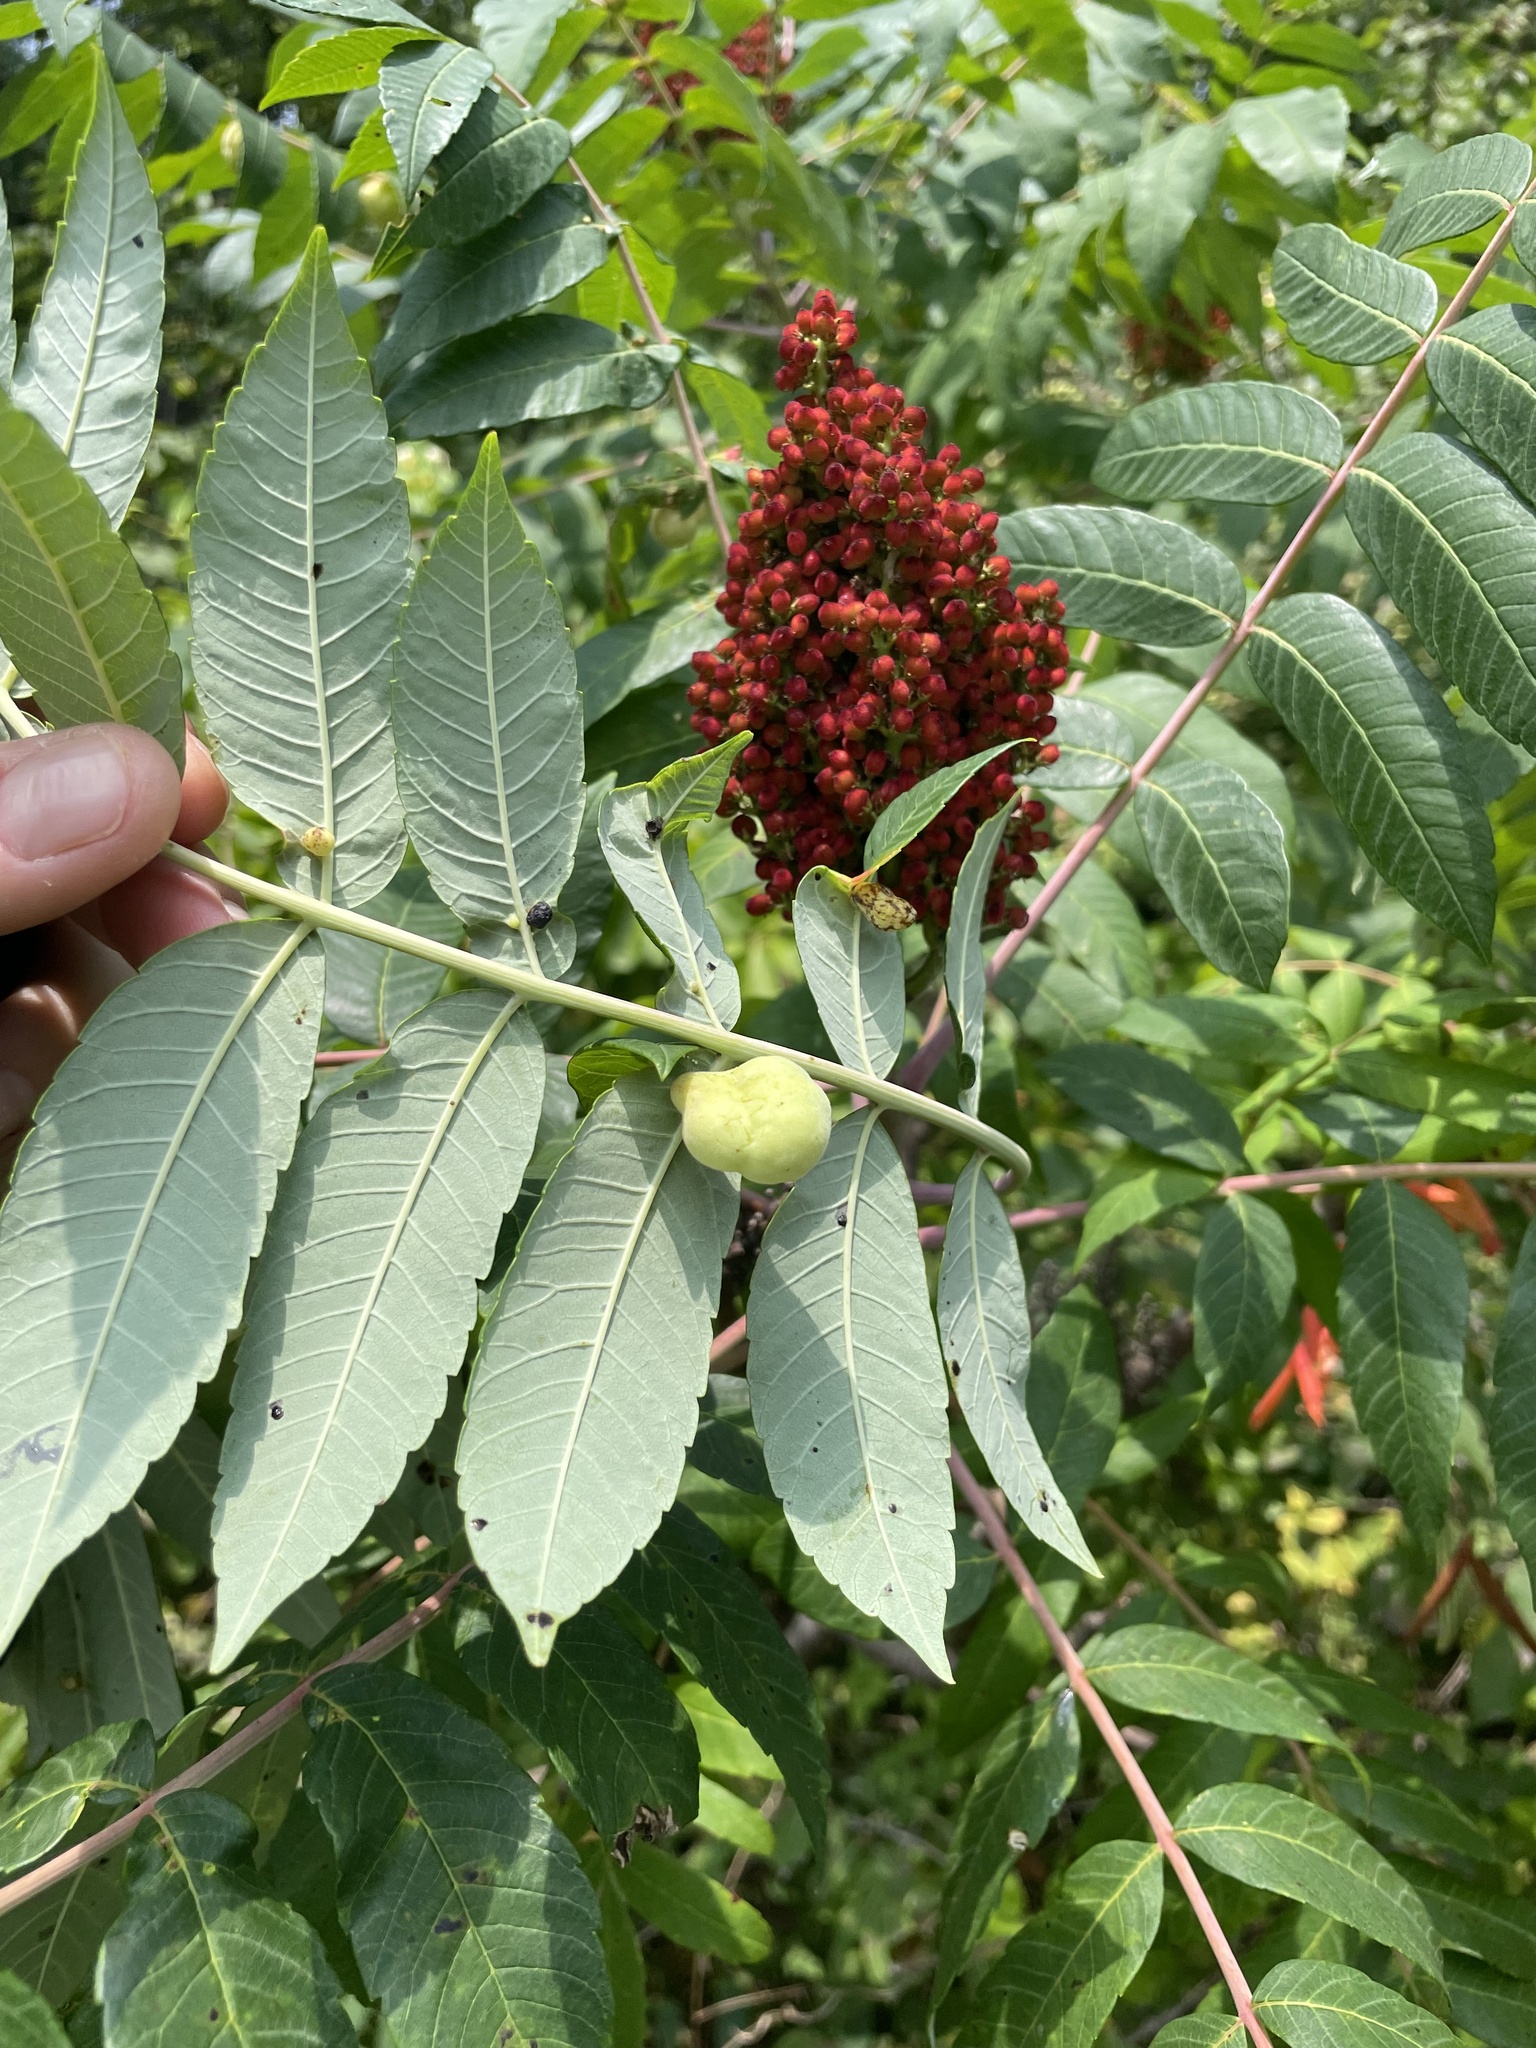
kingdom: Animalia
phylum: Arthropoda
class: Insecta
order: Hemiptera
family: Aphididae
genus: Melaphis
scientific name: Melaphis rhois
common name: Sumac gall aphid
